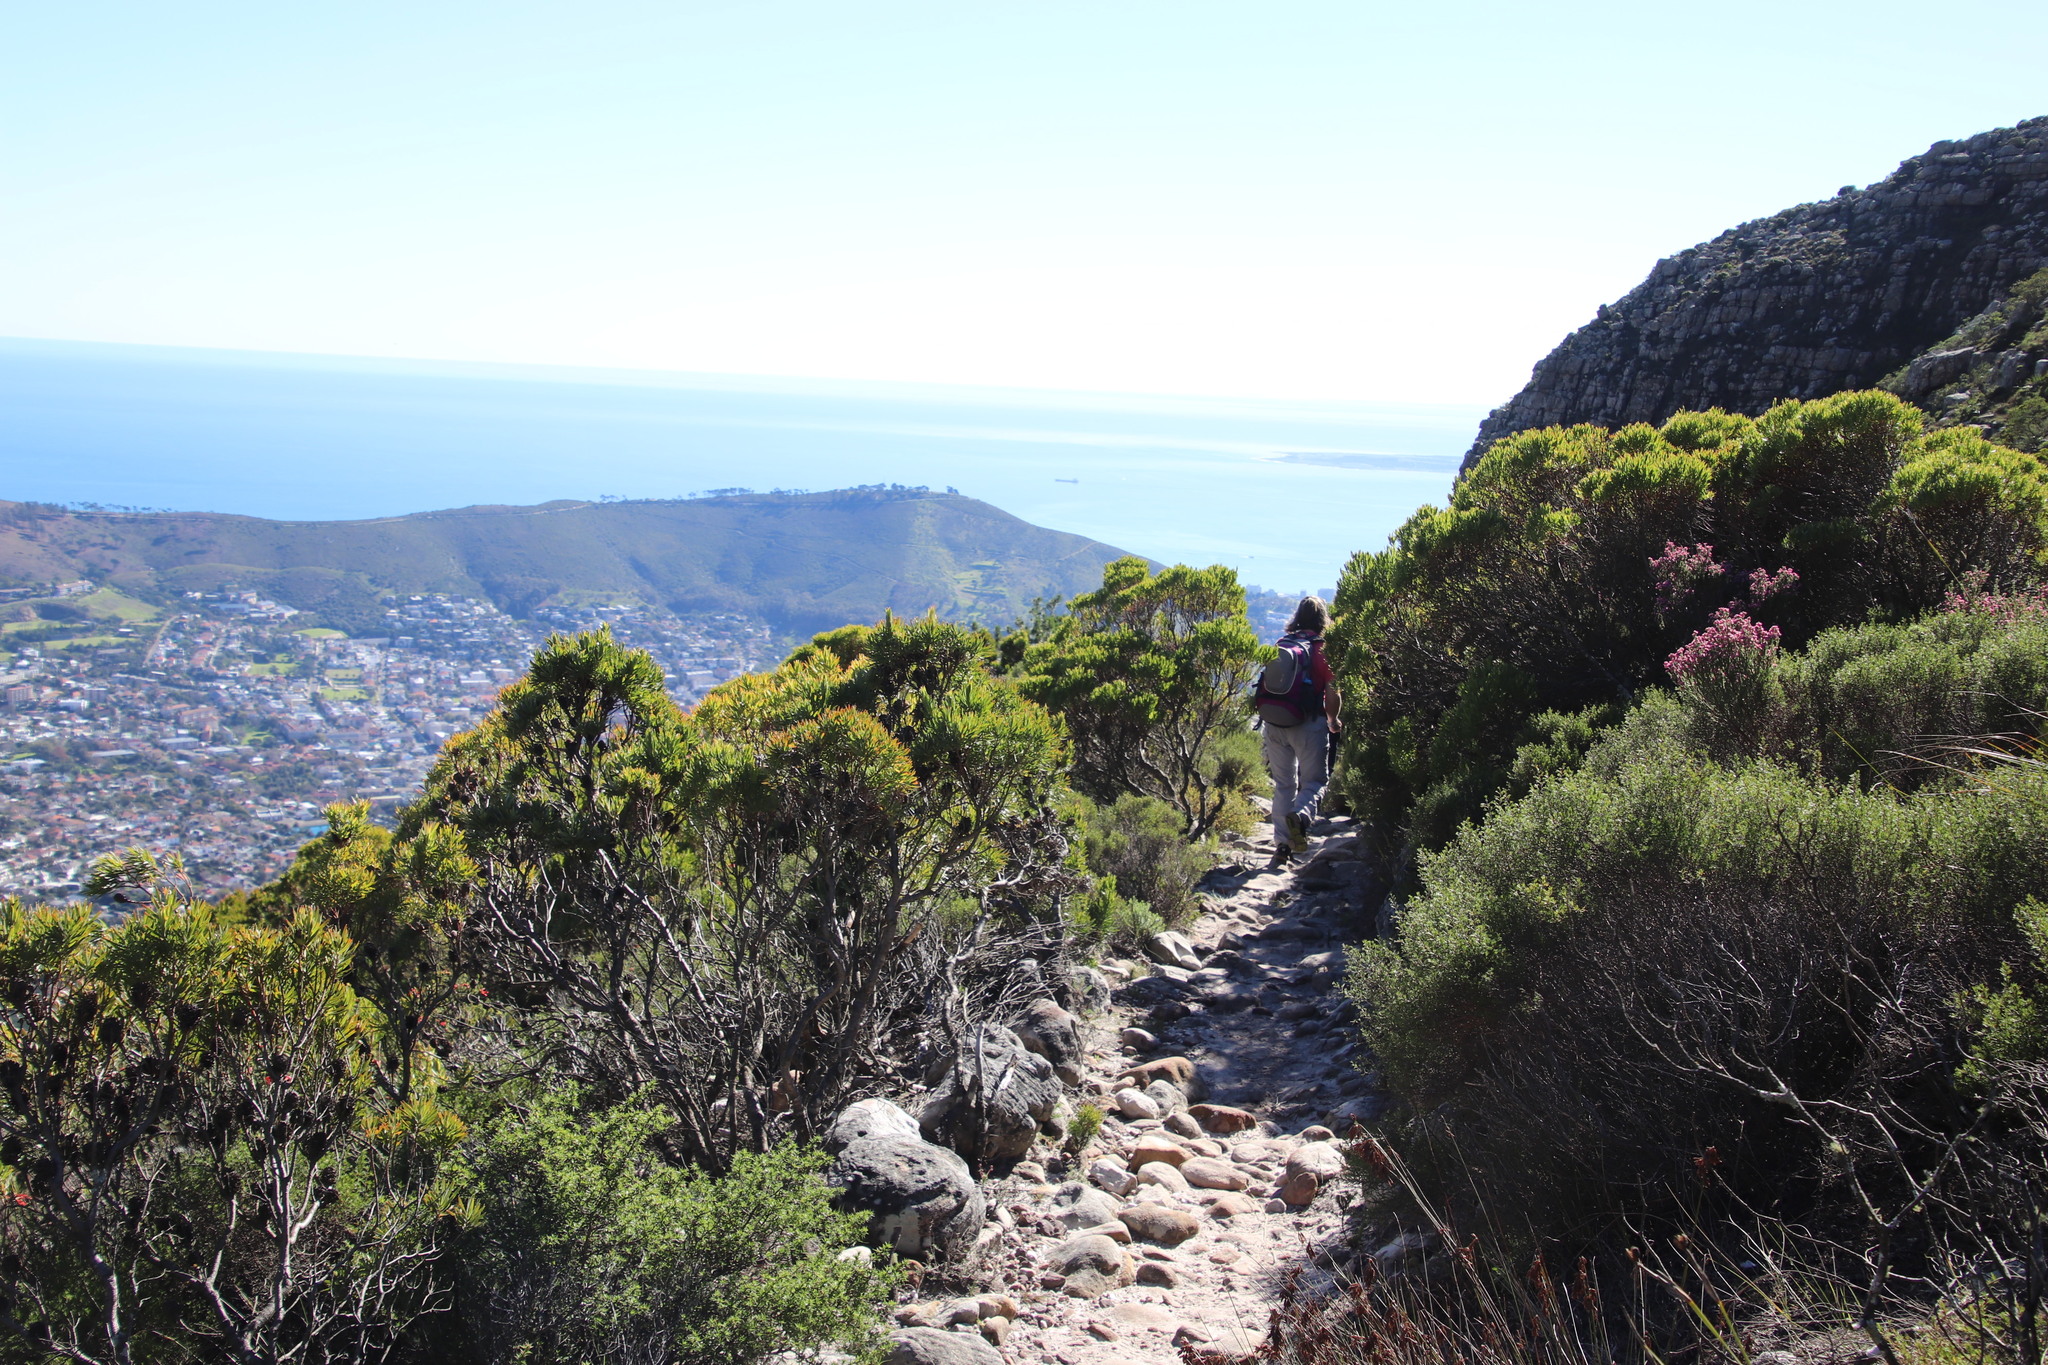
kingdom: Plantae
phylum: Tracheophyta
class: Magnoliopsida
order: Proteales
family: Proteaceae
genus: Leucadendron
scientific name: Leucadendron xanthoconus
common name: Sickle-leaf conebush
